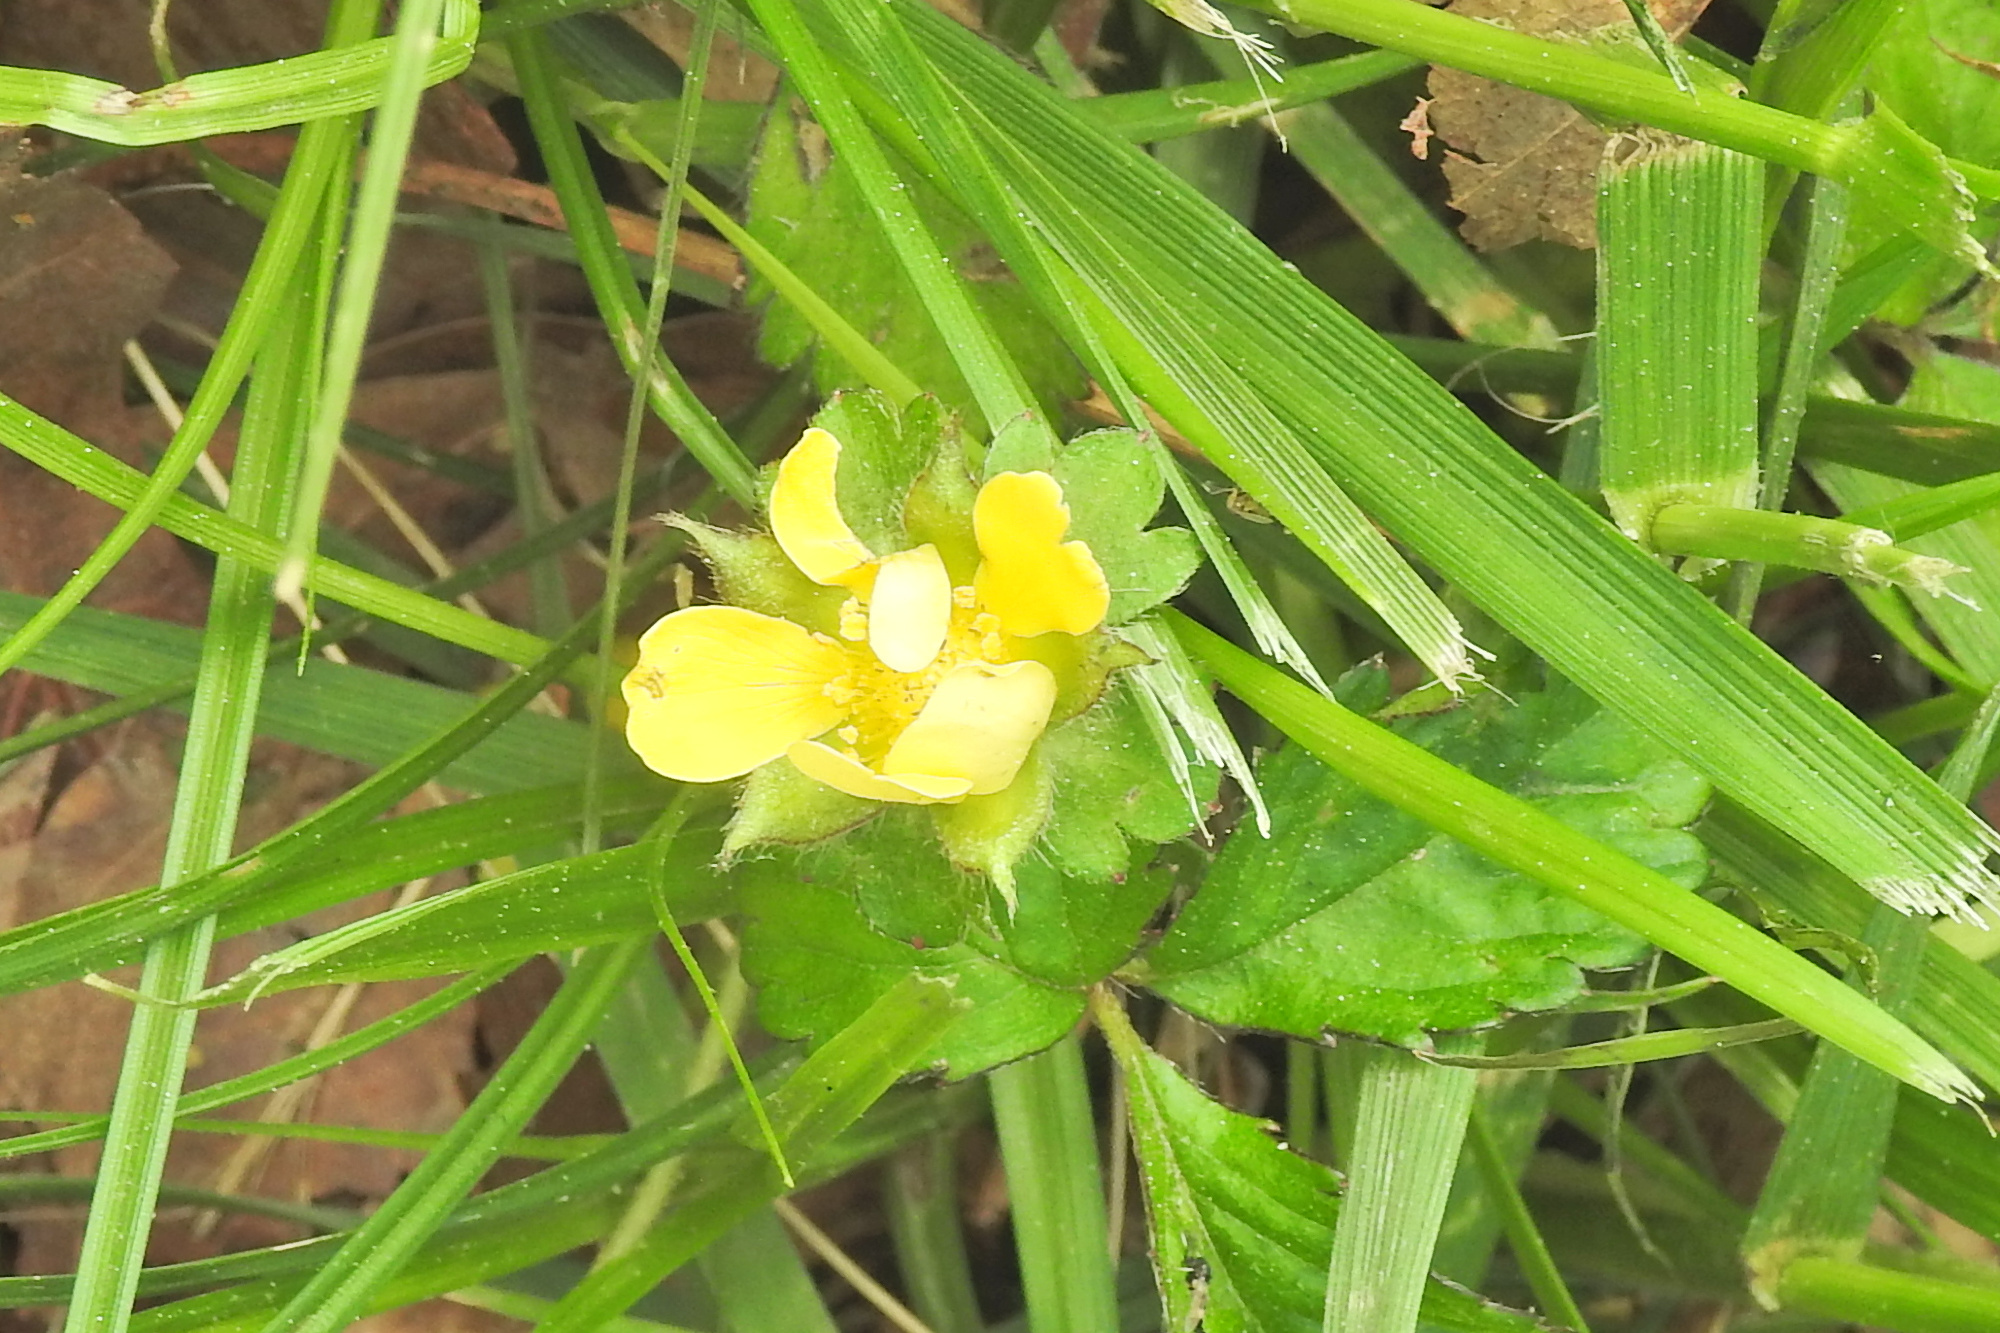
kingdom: Plantae
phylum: Tracheophyta
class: Magnoliopsida
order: Rosales
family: Rosaceae
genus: Potentilla
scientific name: Potentilla indica
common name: Yellow-flowered strawberry
